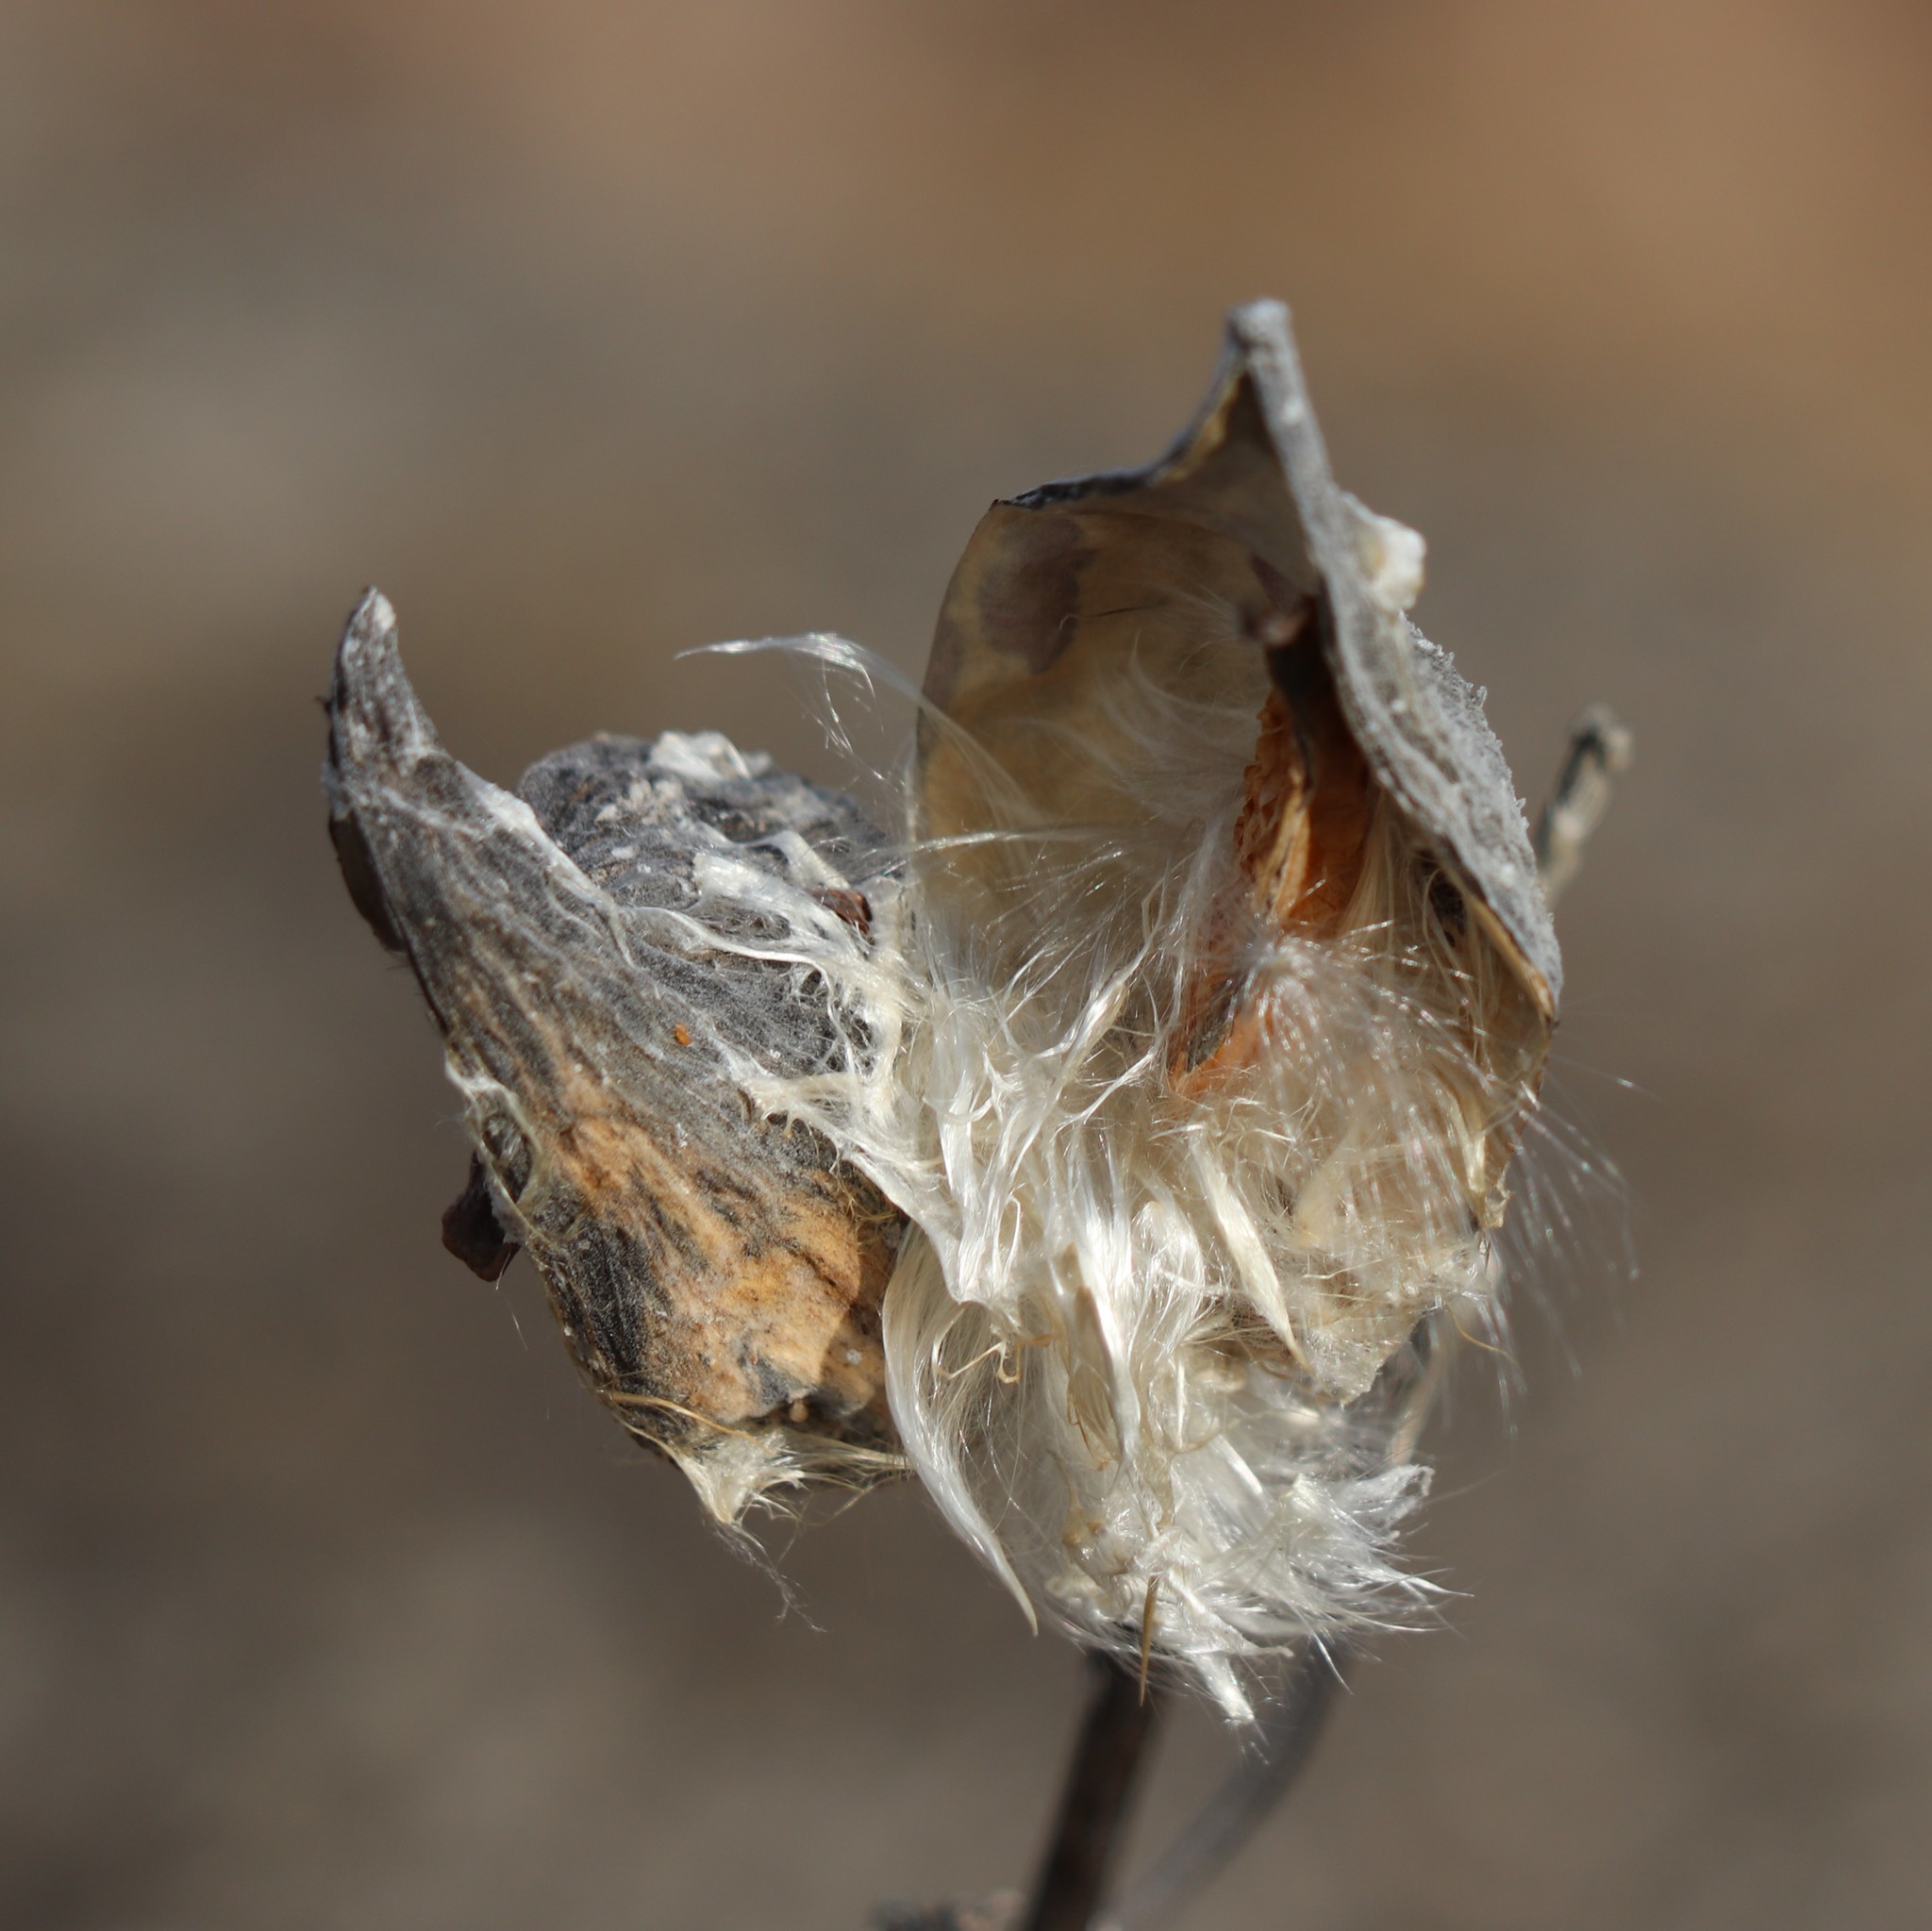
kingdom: Plantae
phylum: Tracheophyta
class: Magnoliopsida
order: Gentianales
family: Apocynaceae
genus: Asclepias
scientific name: Asclepias syriaca
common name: Common milkweed
